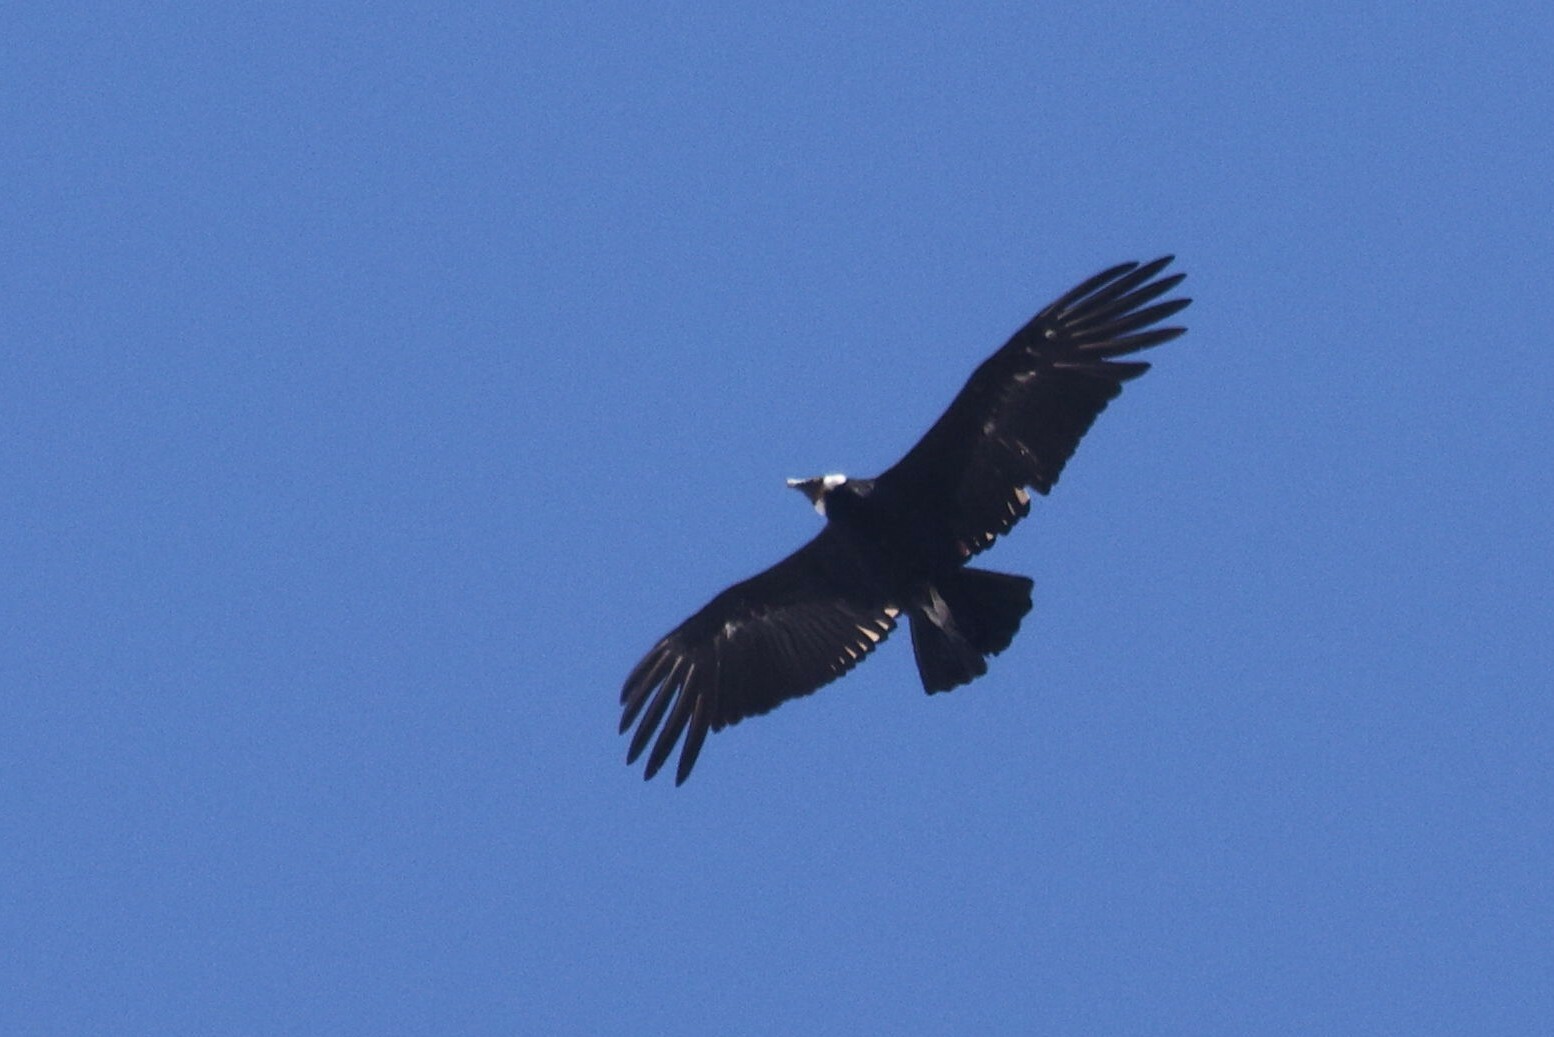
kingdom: Animalia
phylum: Chordata
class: Aves
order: Accipitriformes
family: Cathartidae
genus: Vultur
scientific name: Vultur gryphus
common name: Andean condor
